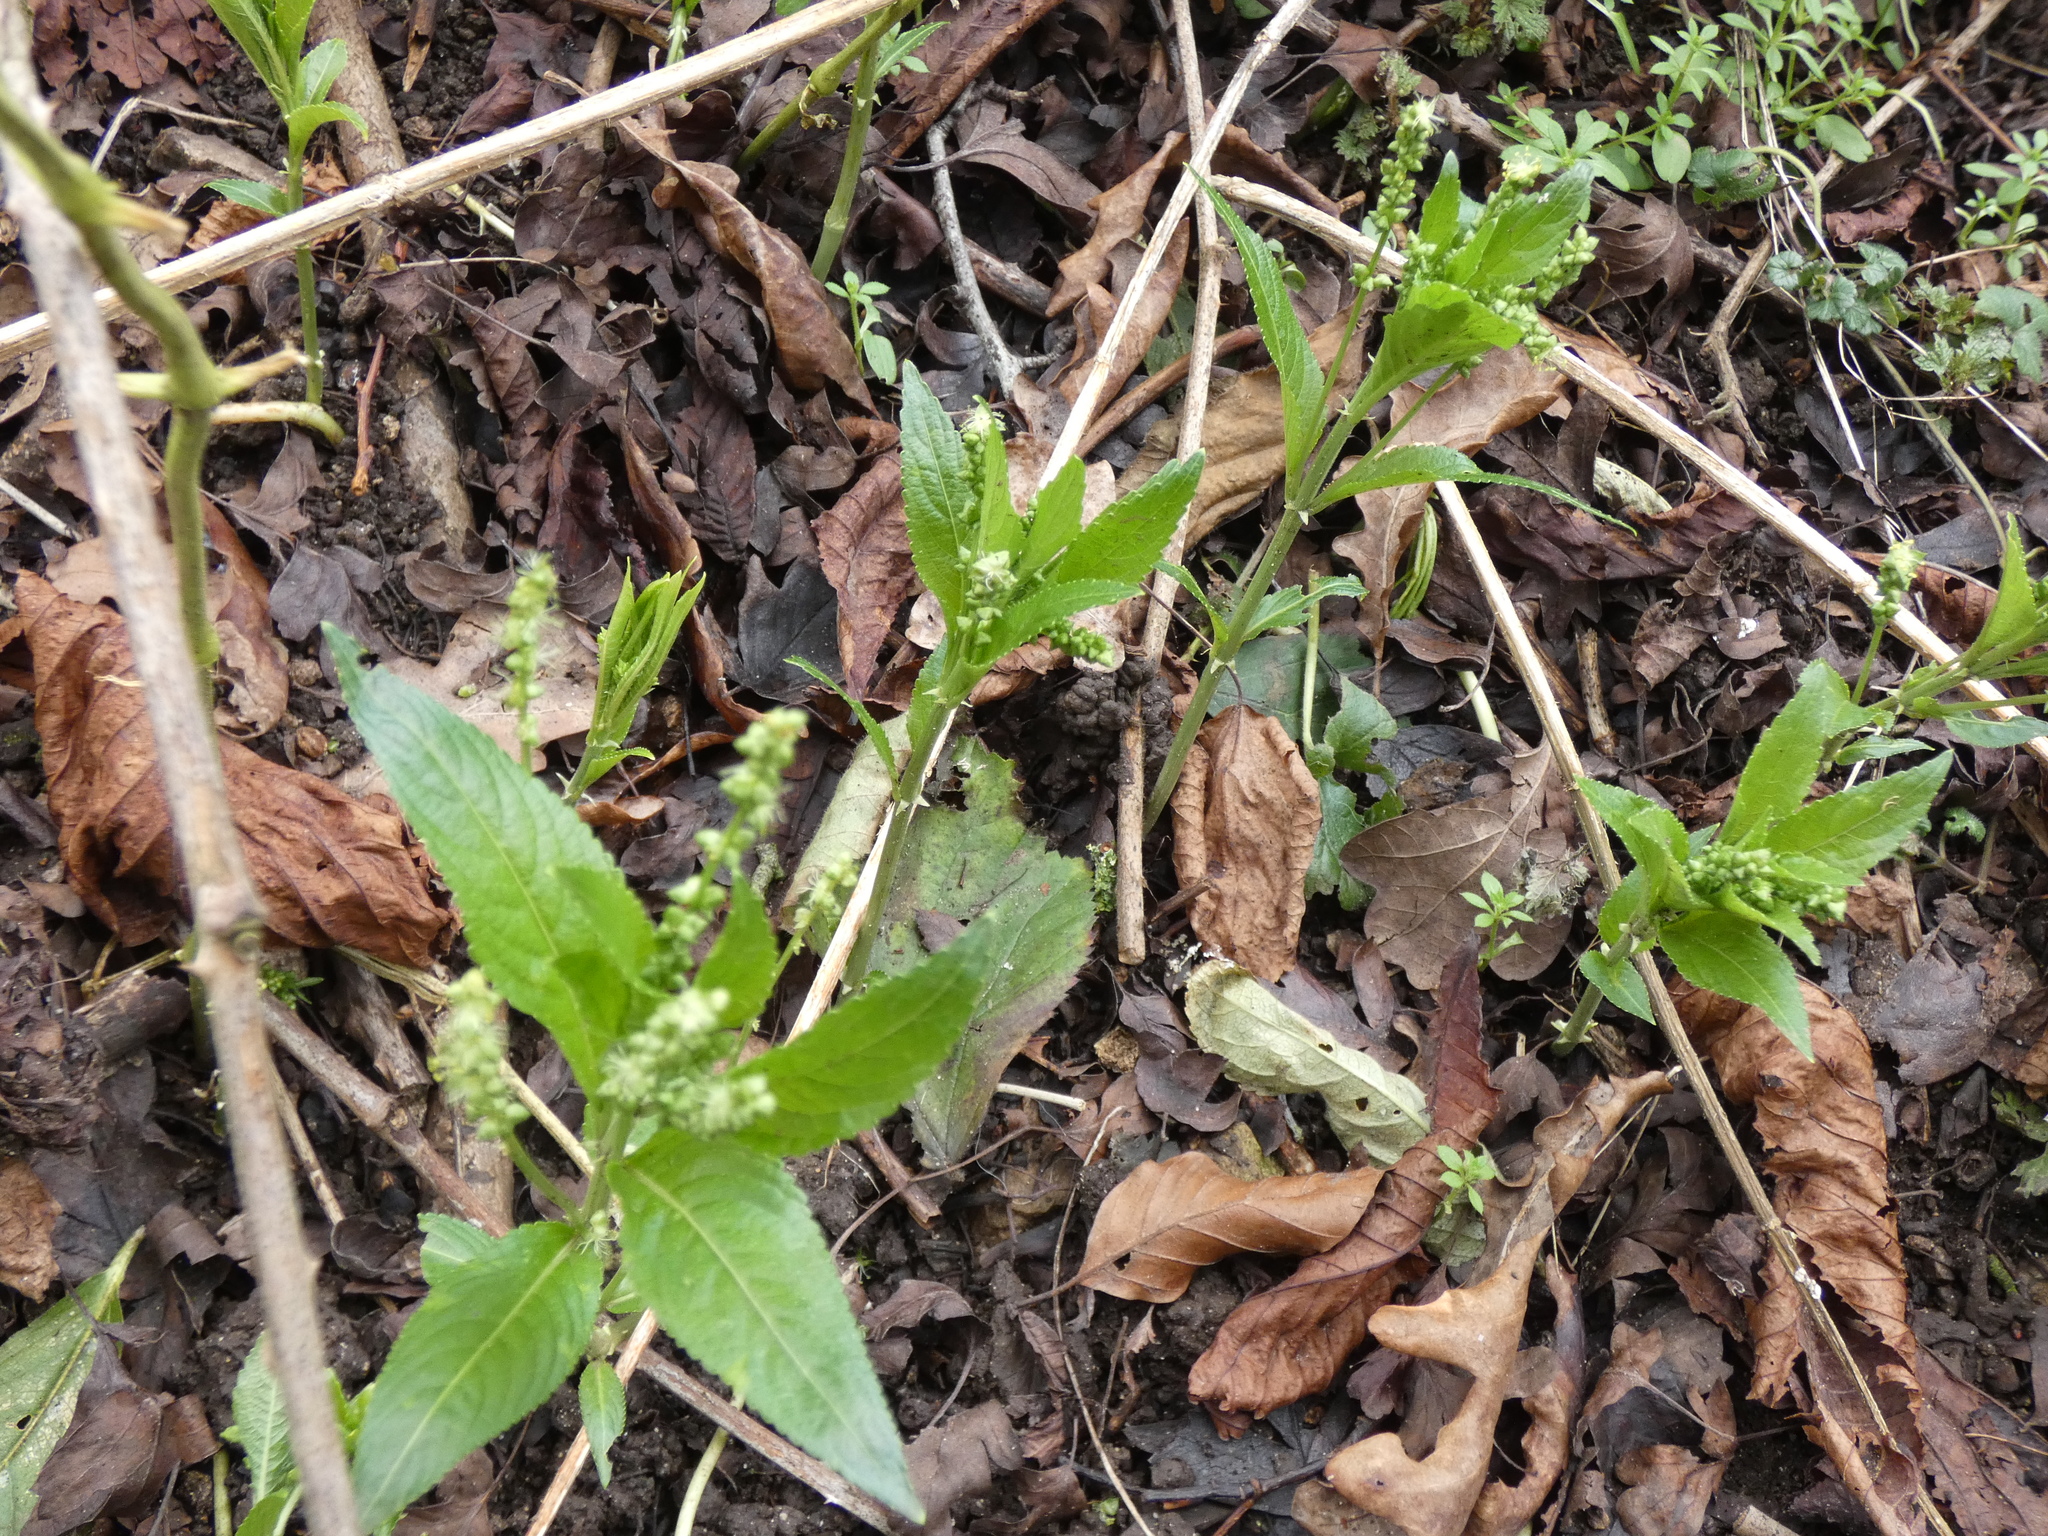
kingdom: Plantae
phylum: Tracheophyta
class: Magnoliopsida
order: Malpighiales
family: Euphorbiaceae
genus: Mercurialis
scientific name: Mercurialis perennis
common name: Dog mercury
